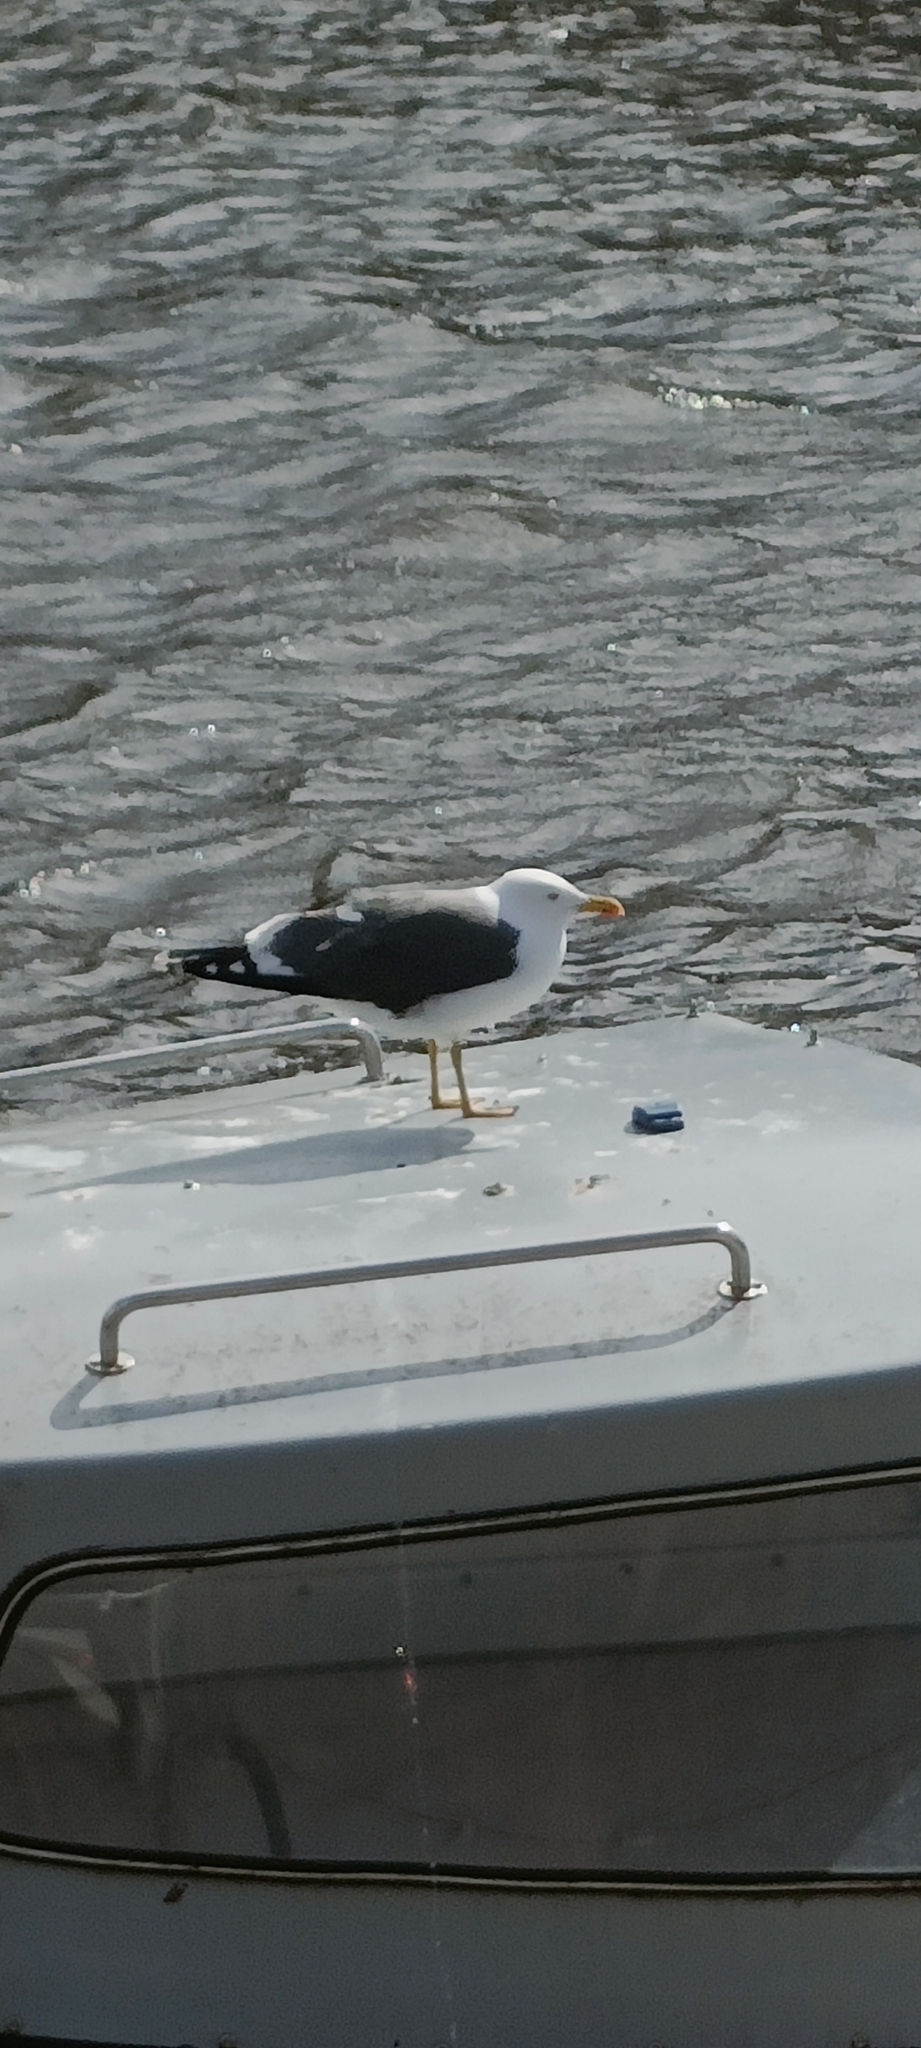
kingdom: Animalia
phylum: Chordata
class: Aves
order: Charadriiformes
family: Laridae
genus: Larus
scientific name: Larus fuscus
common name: Lesser black-backed gull
